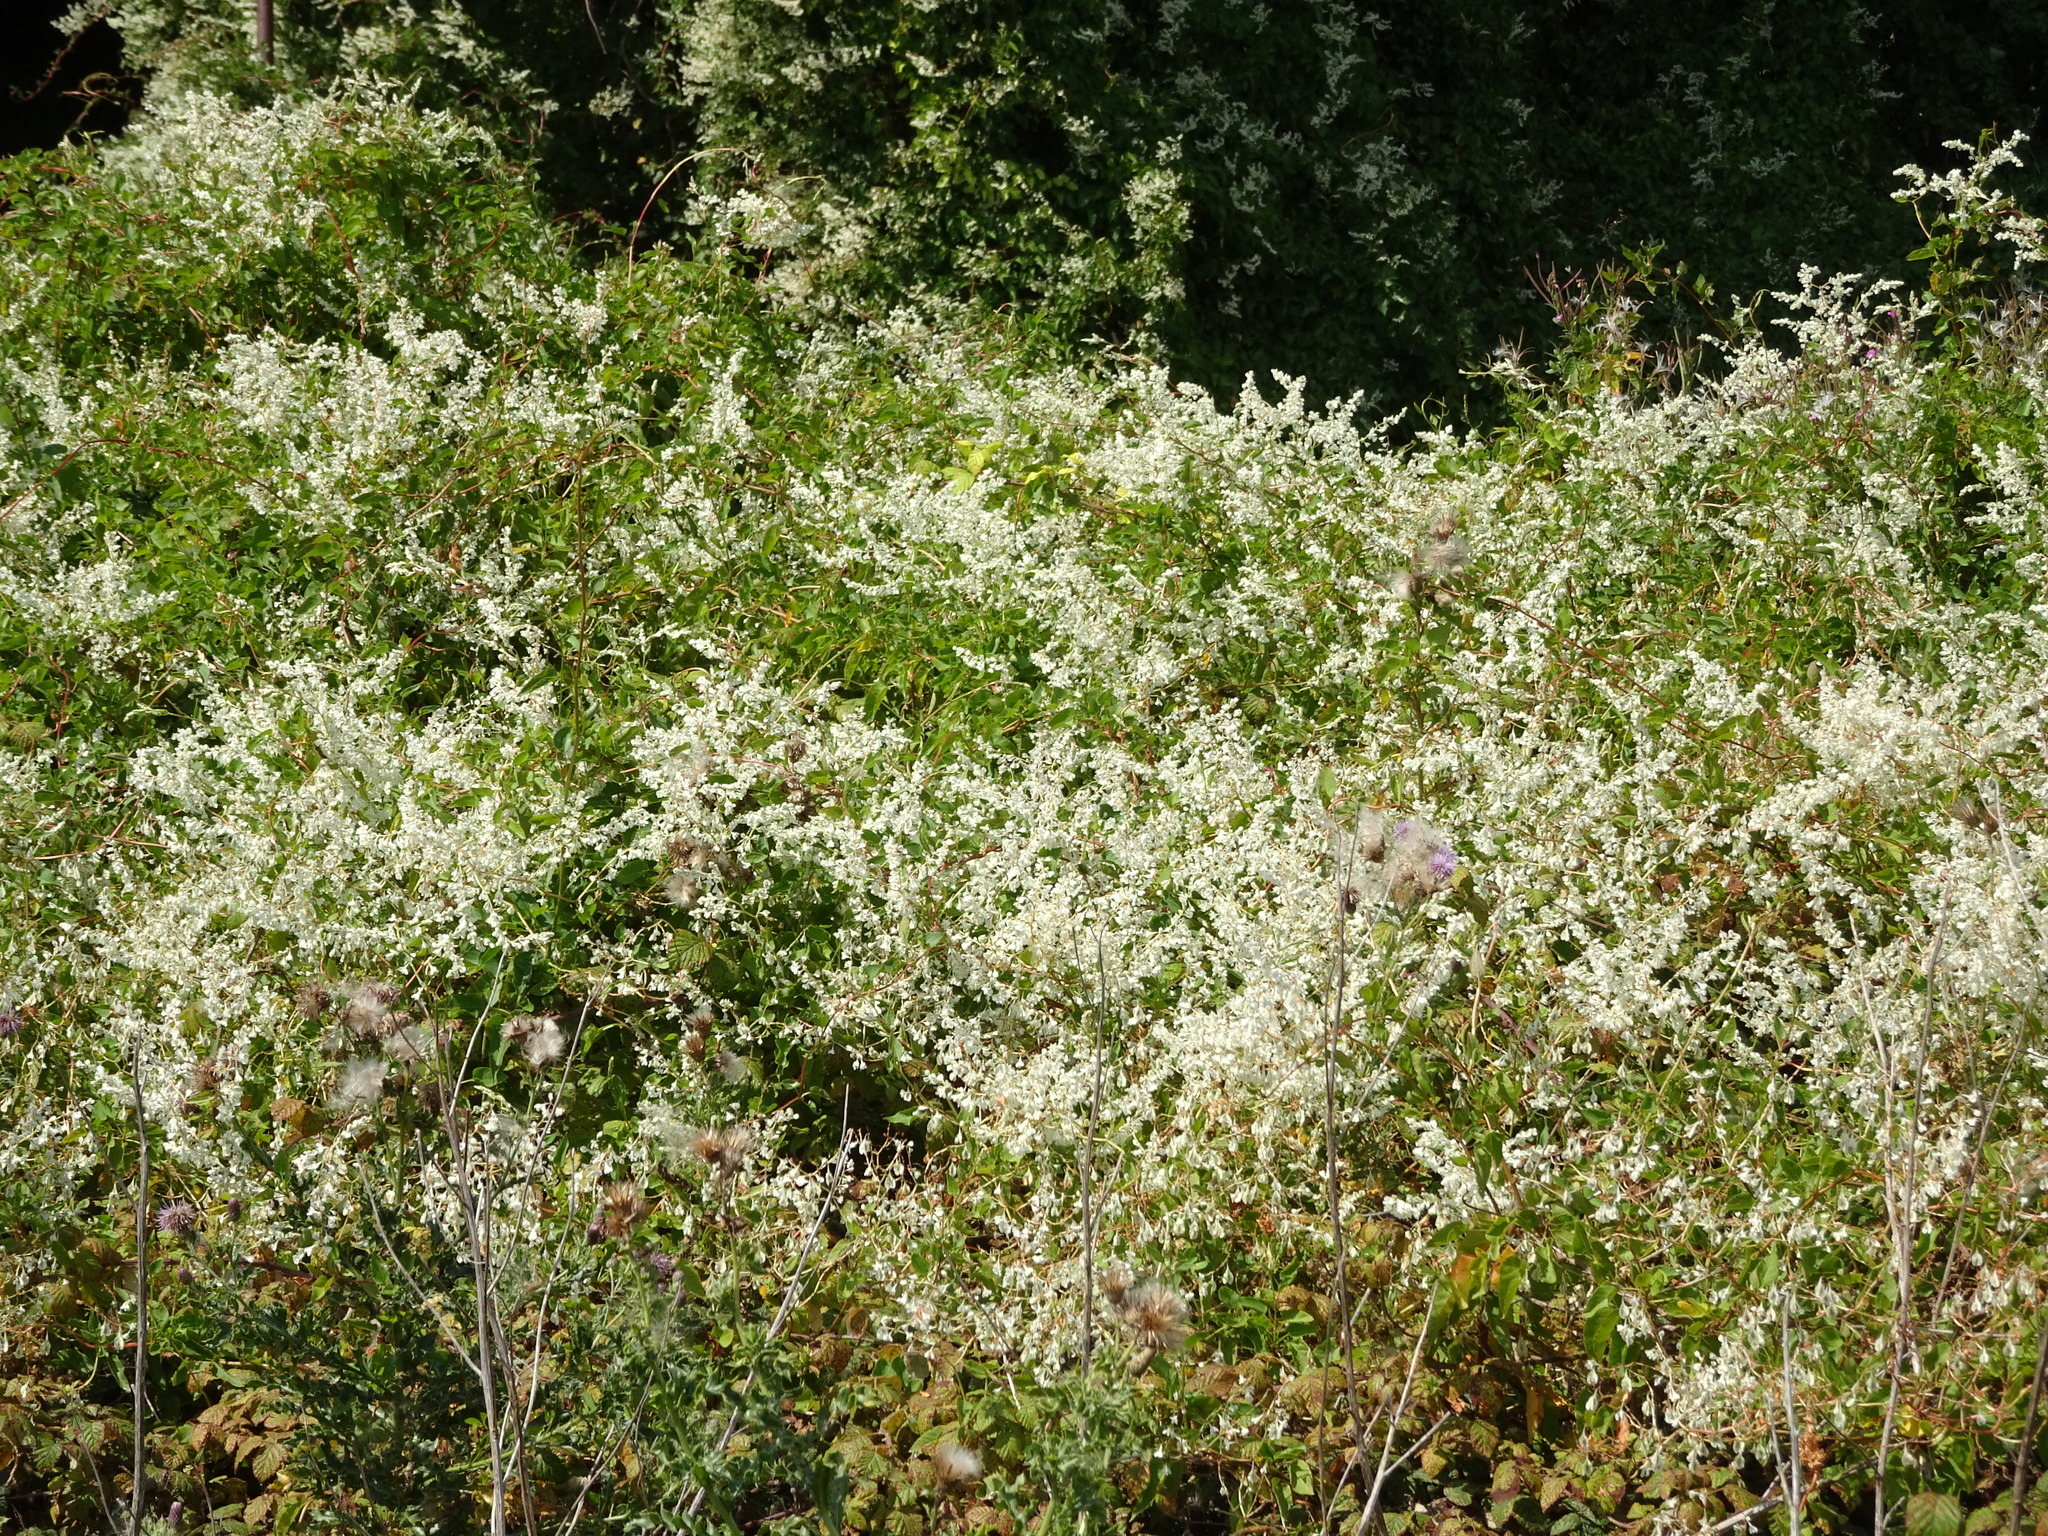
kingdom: Plantae
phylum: Tracheophyta
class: Magnoliopsida
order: Caryophyllales
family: Polygonaceae
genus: Fallopia
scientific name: Fallopia baldschuanica
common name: Russian-vine
